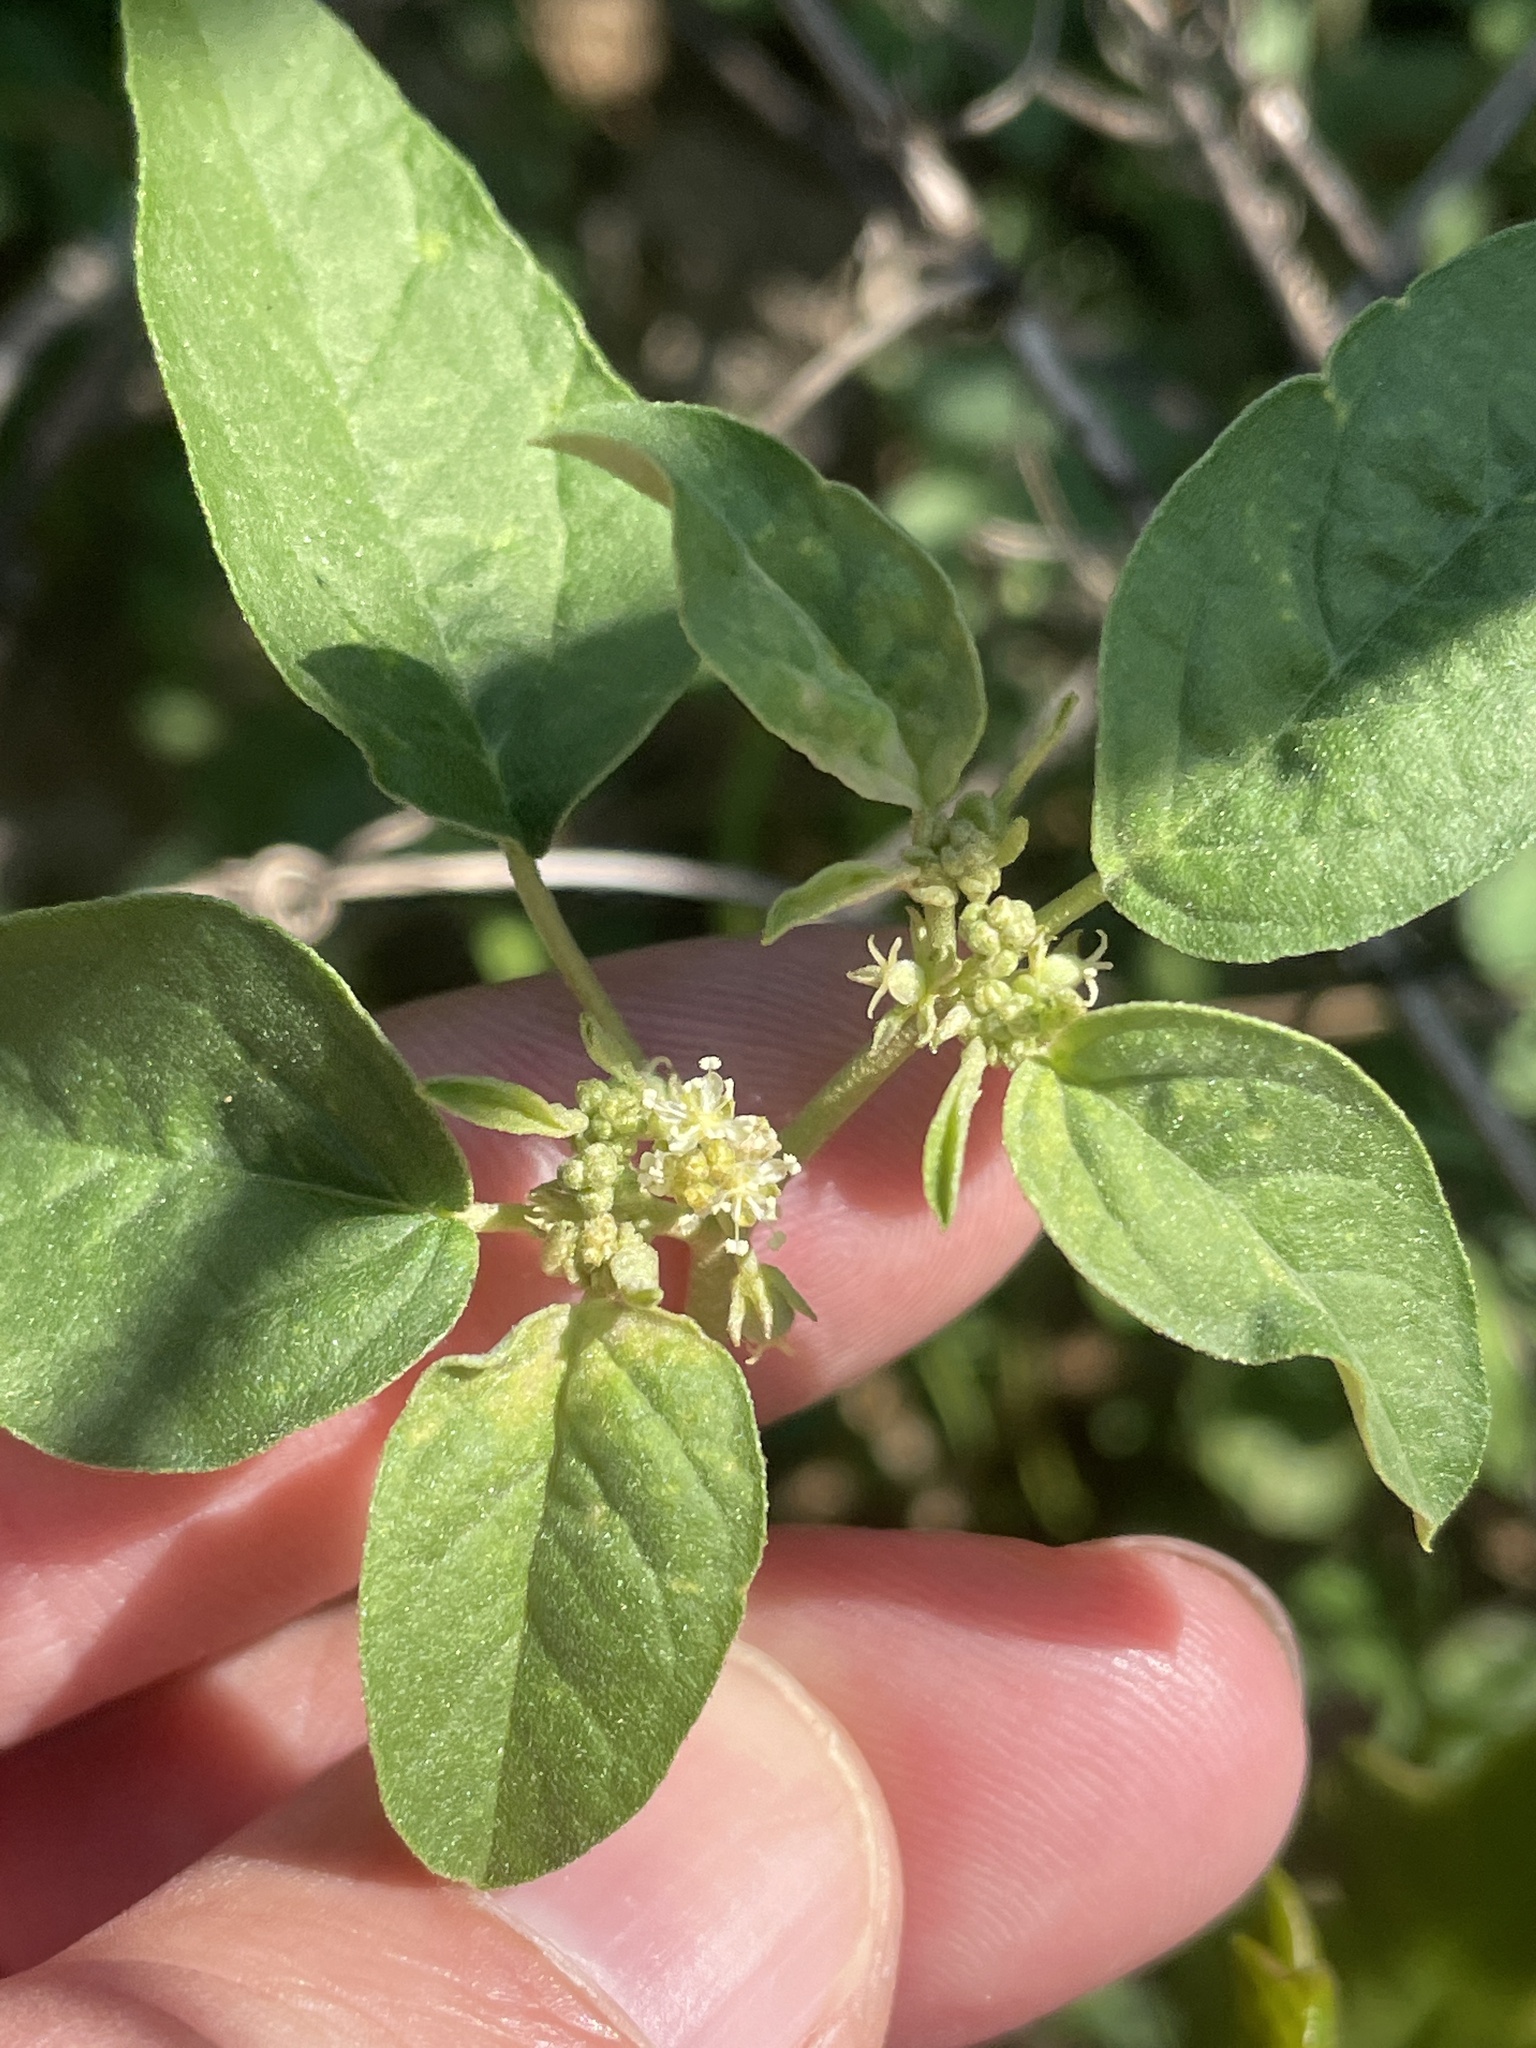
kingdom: Plantae
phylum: Tracheophyta
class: Magnoliopsida
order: Malpighiales
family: Euphorbiaceae
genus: Croton
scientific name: Croton monanthogynus
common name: One-seed croton
